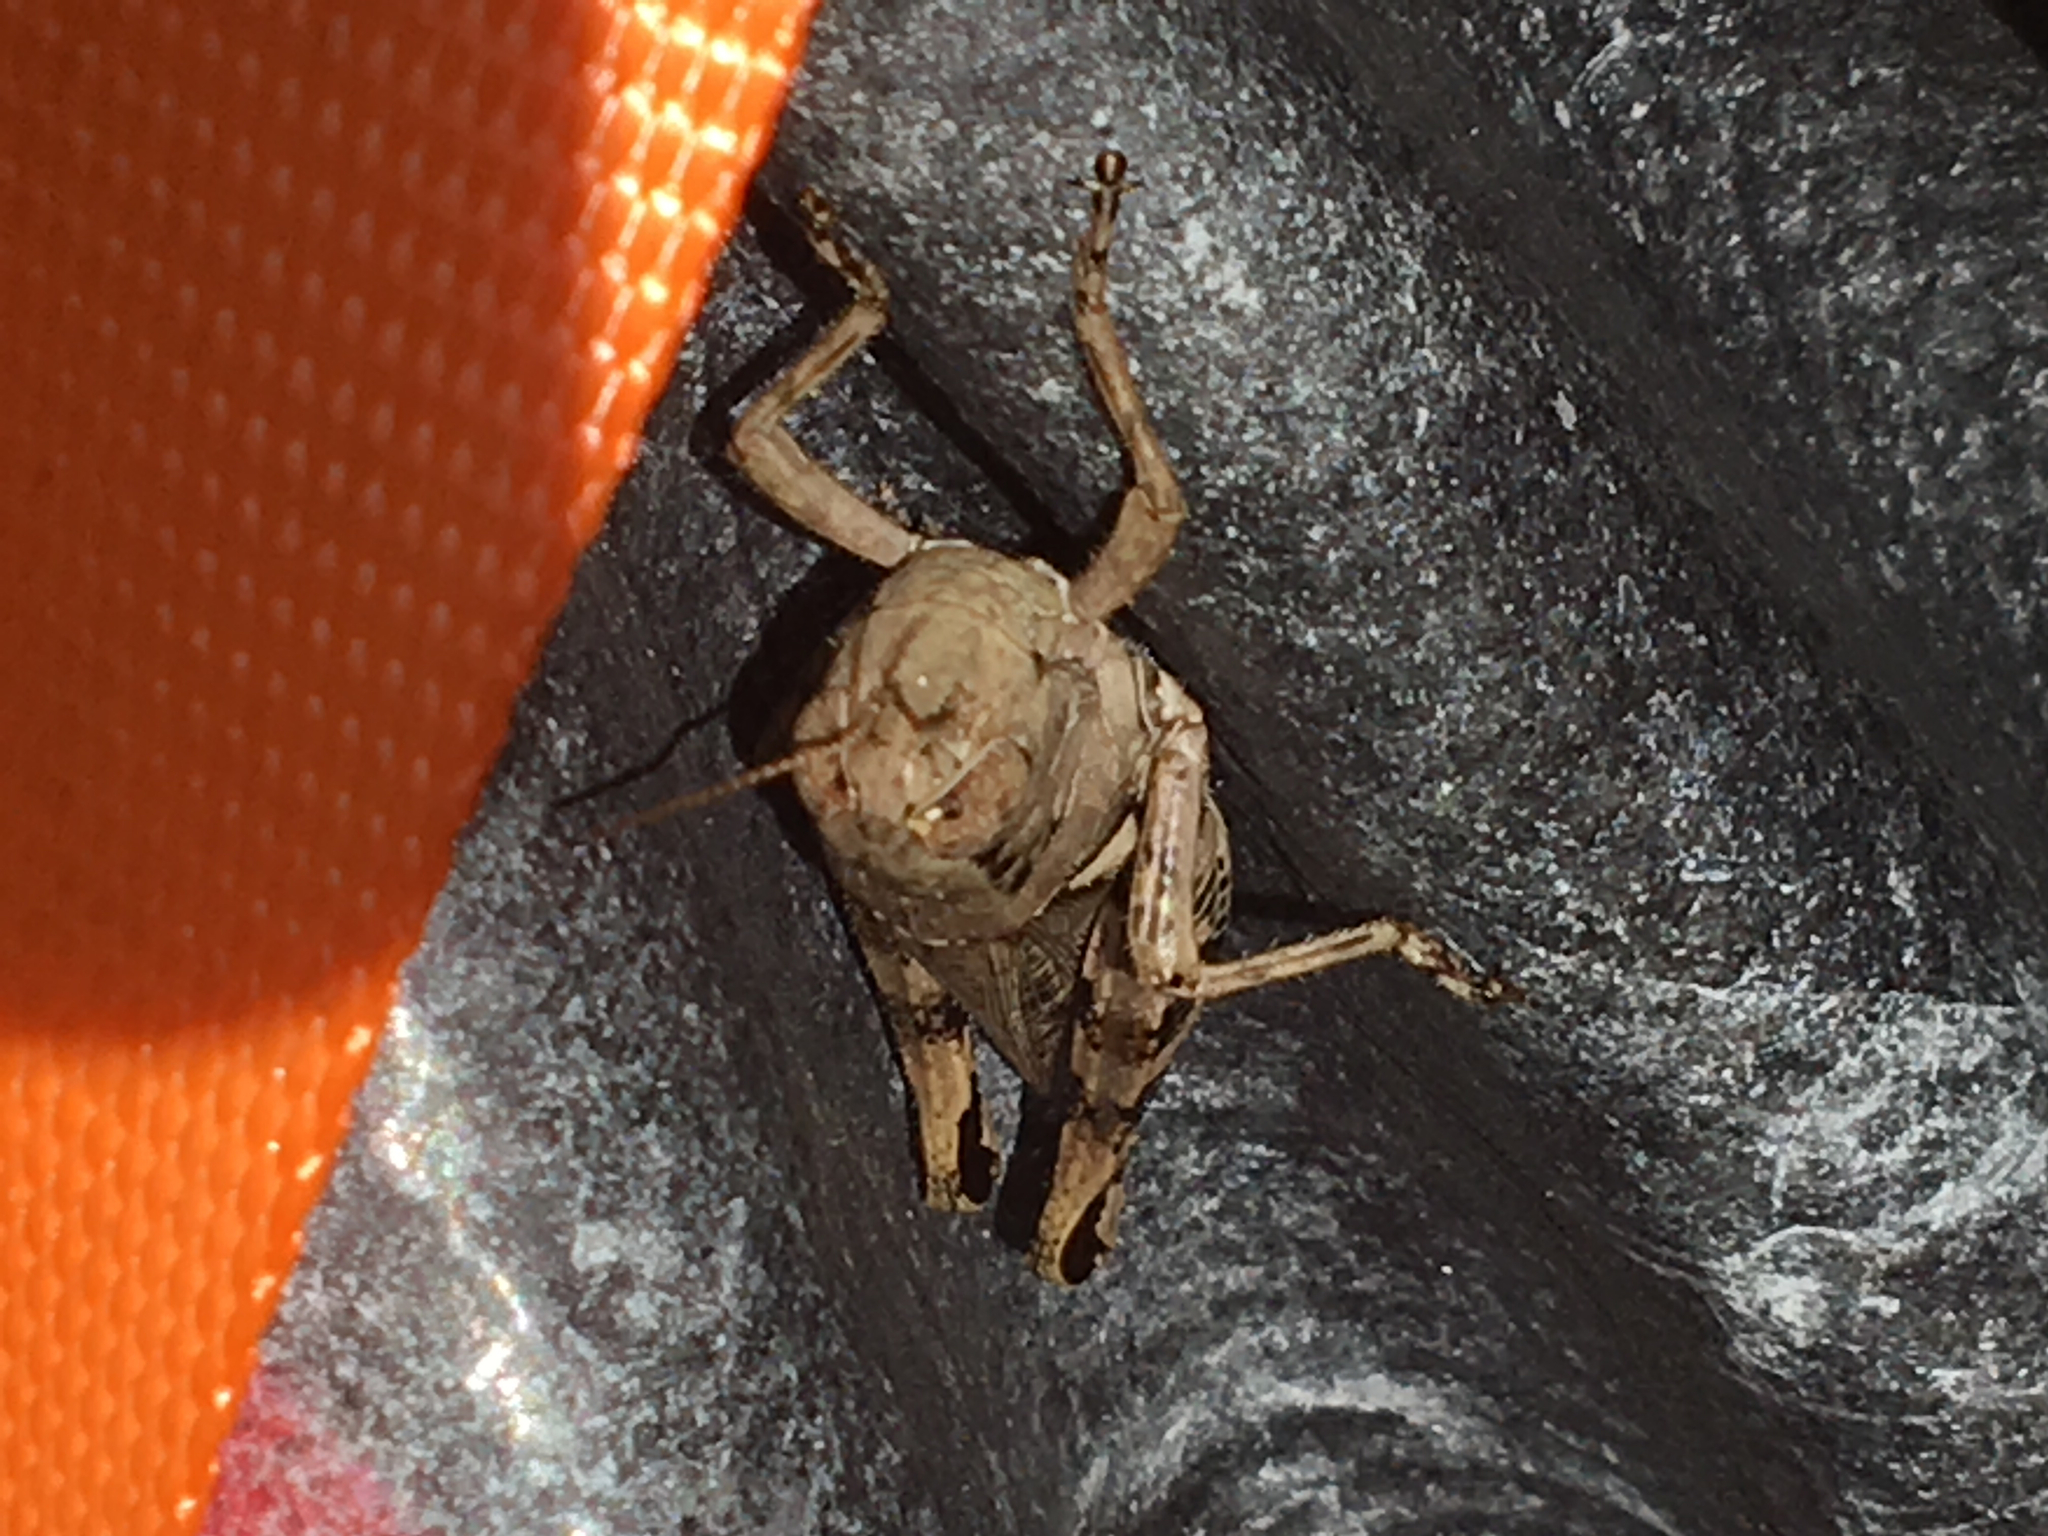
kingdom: Animalia
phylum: Arthropoda
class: Insecta
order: Orthoptera
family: Acrididae
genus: Melanoplus
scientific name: Melanoplus ponderosus
